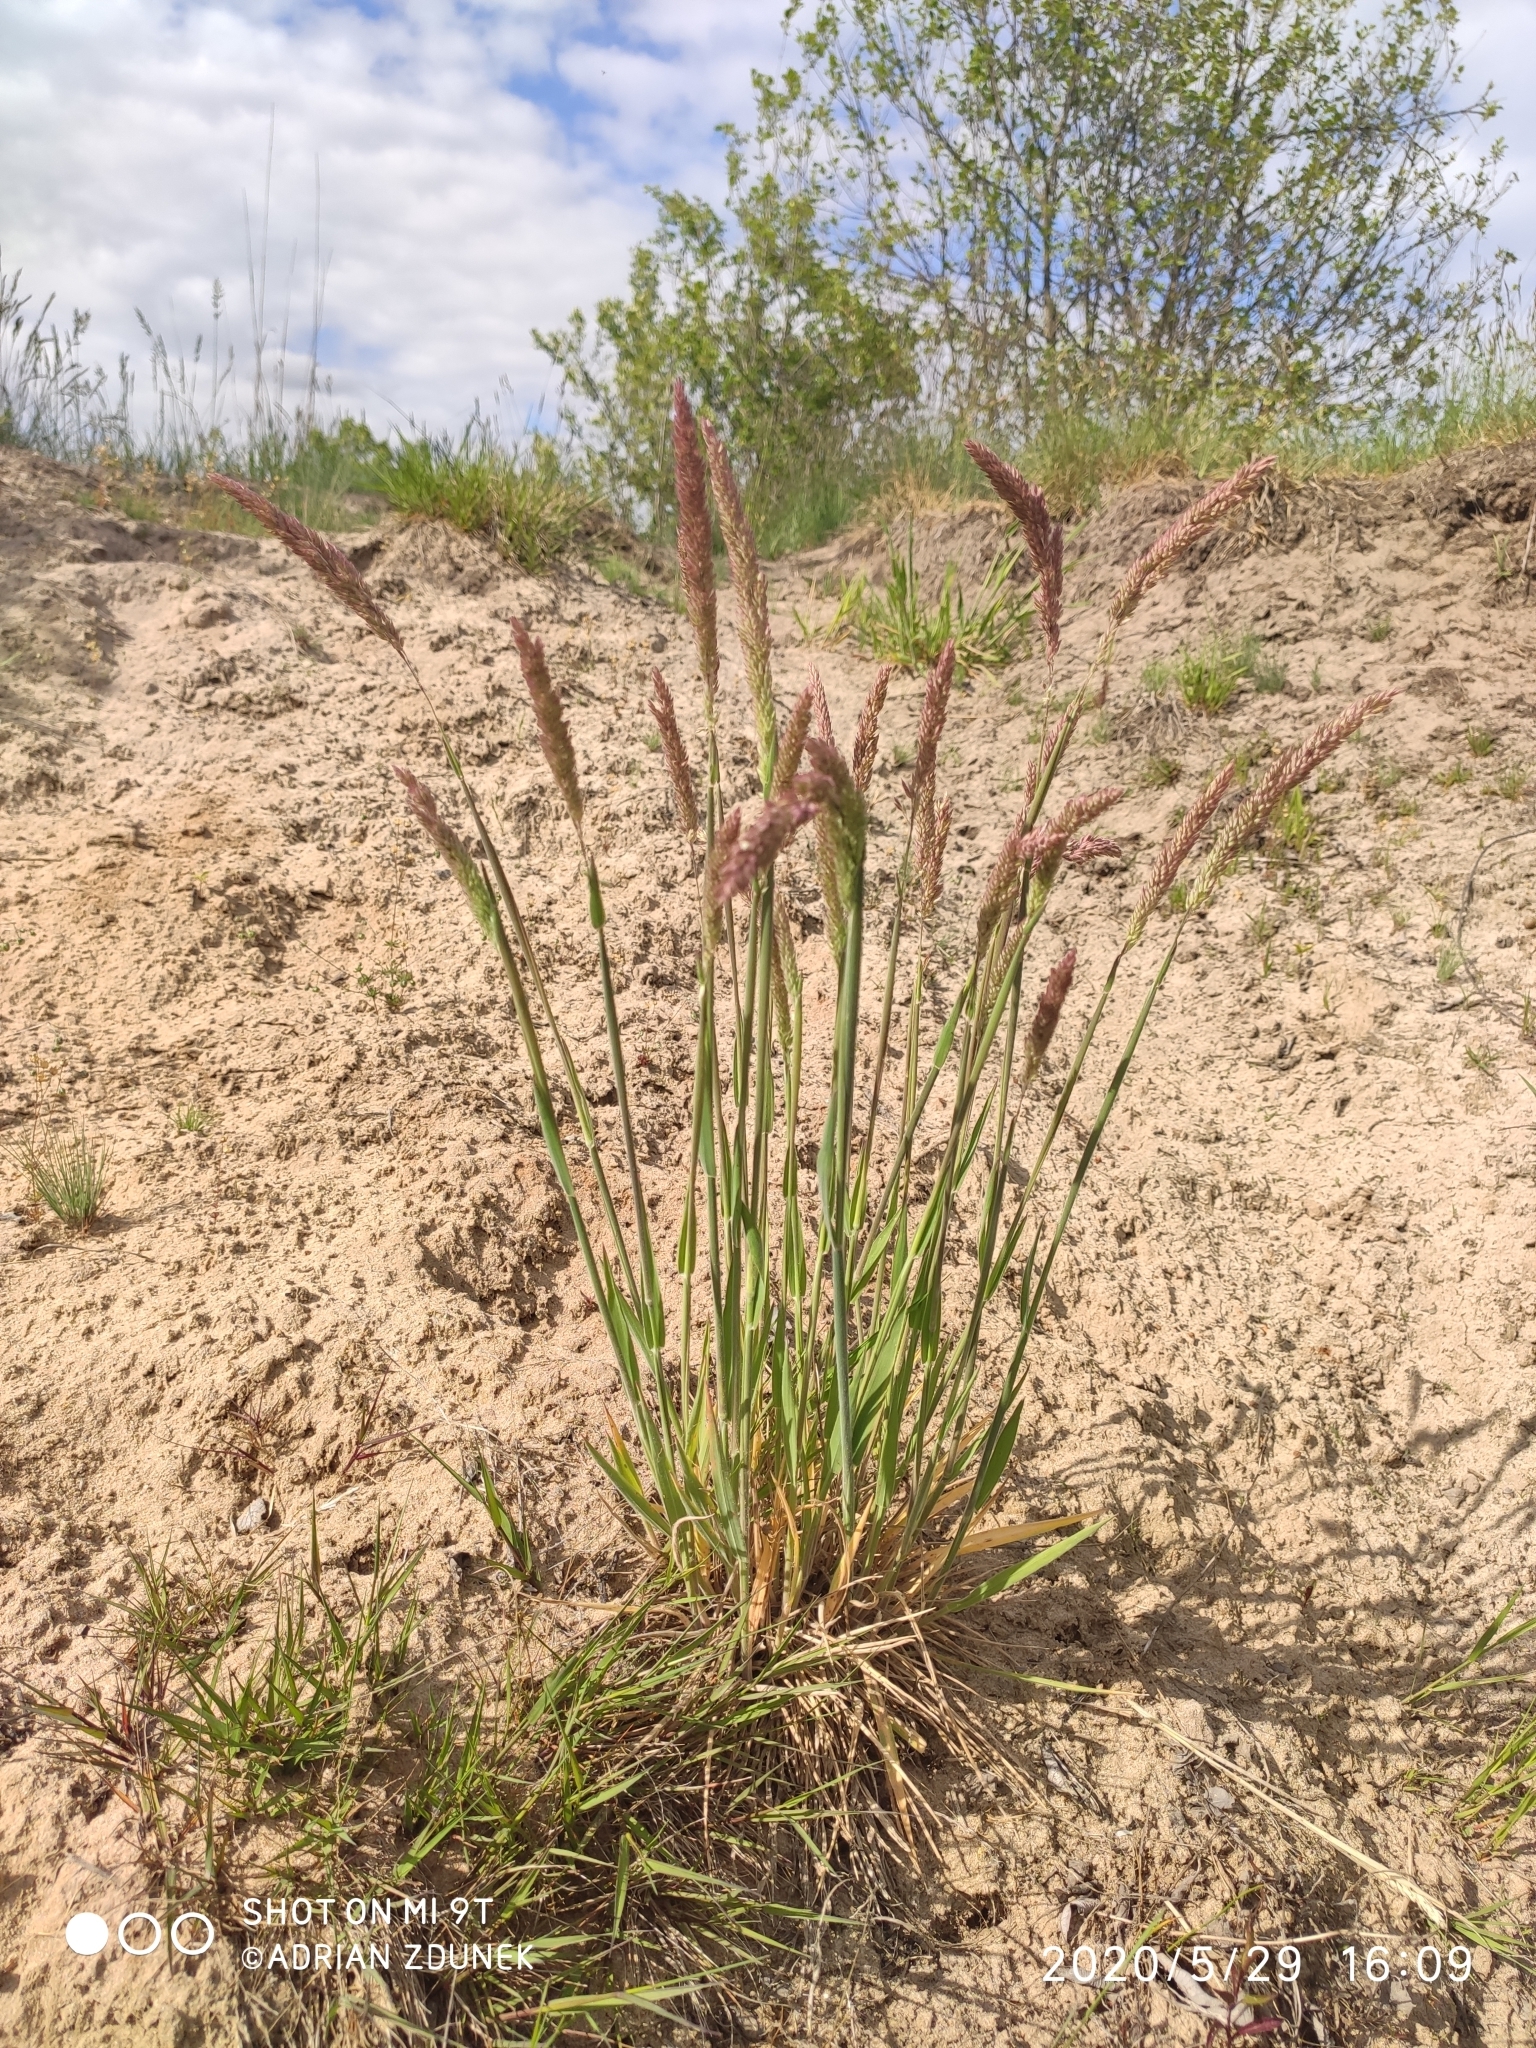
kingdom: Plantae
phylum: Tracheophyta
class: Liliopsida
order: Poales
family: Poaceae
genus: Holcus
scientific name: Holcus lanatus
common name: Yorkshire-fog
